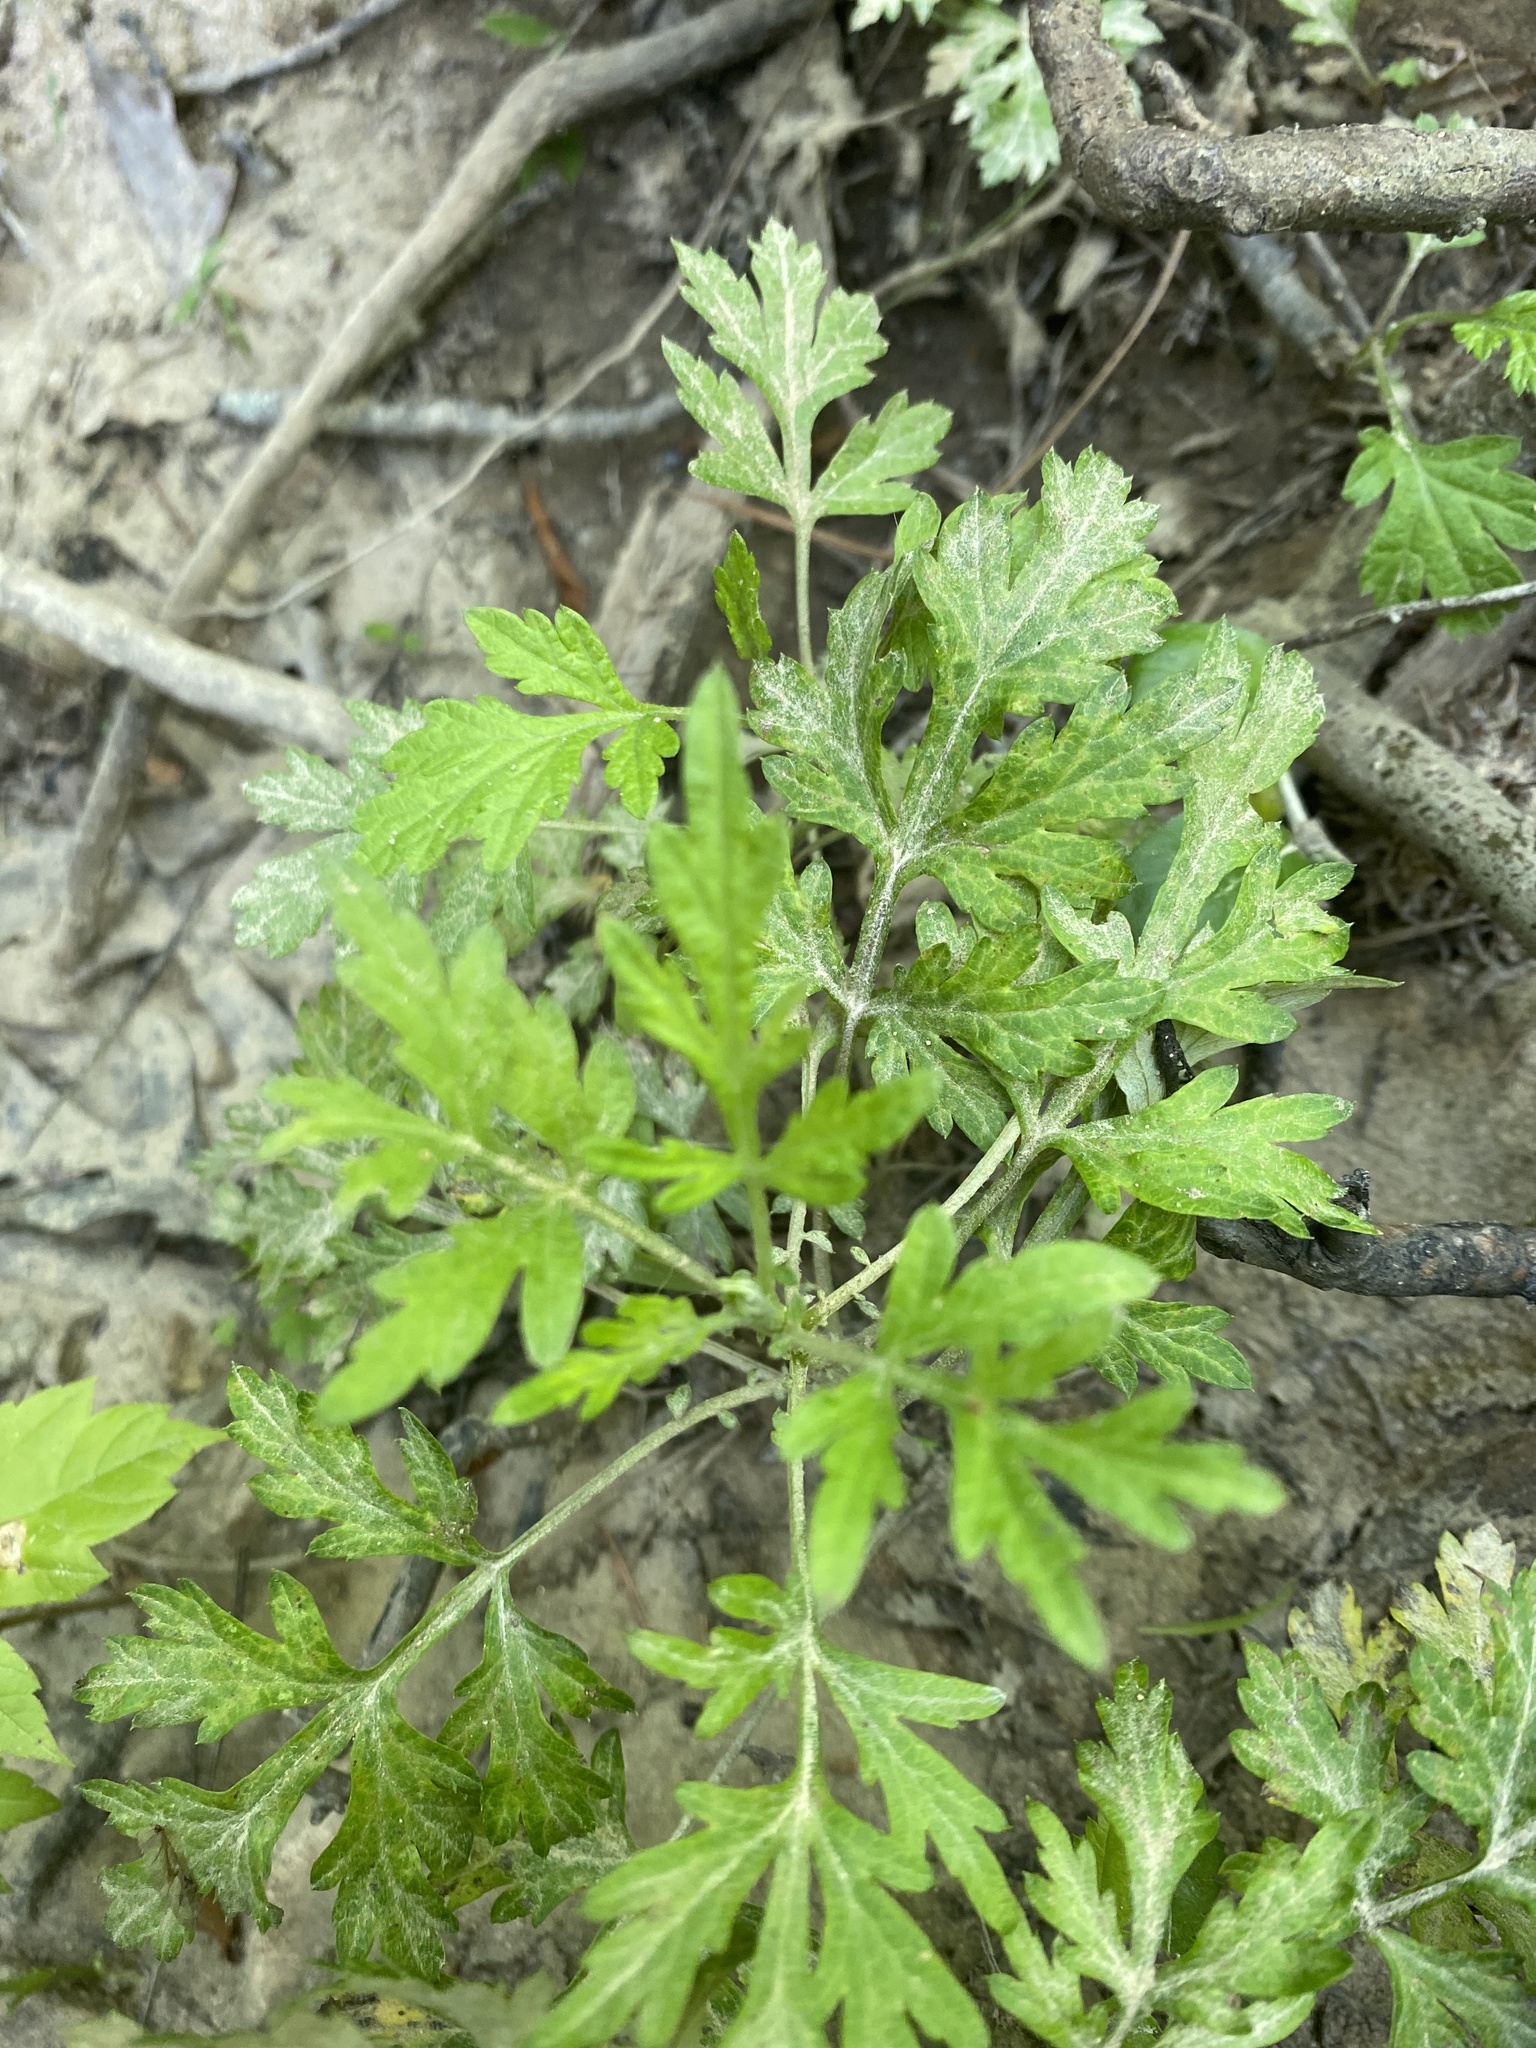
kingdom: Plantae
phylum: Tracheophyta
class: Magnoliopsida
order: Asterales
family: Asteraceae
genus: Artemisia
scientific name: Artemisia vulgaris
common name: Mugwort
